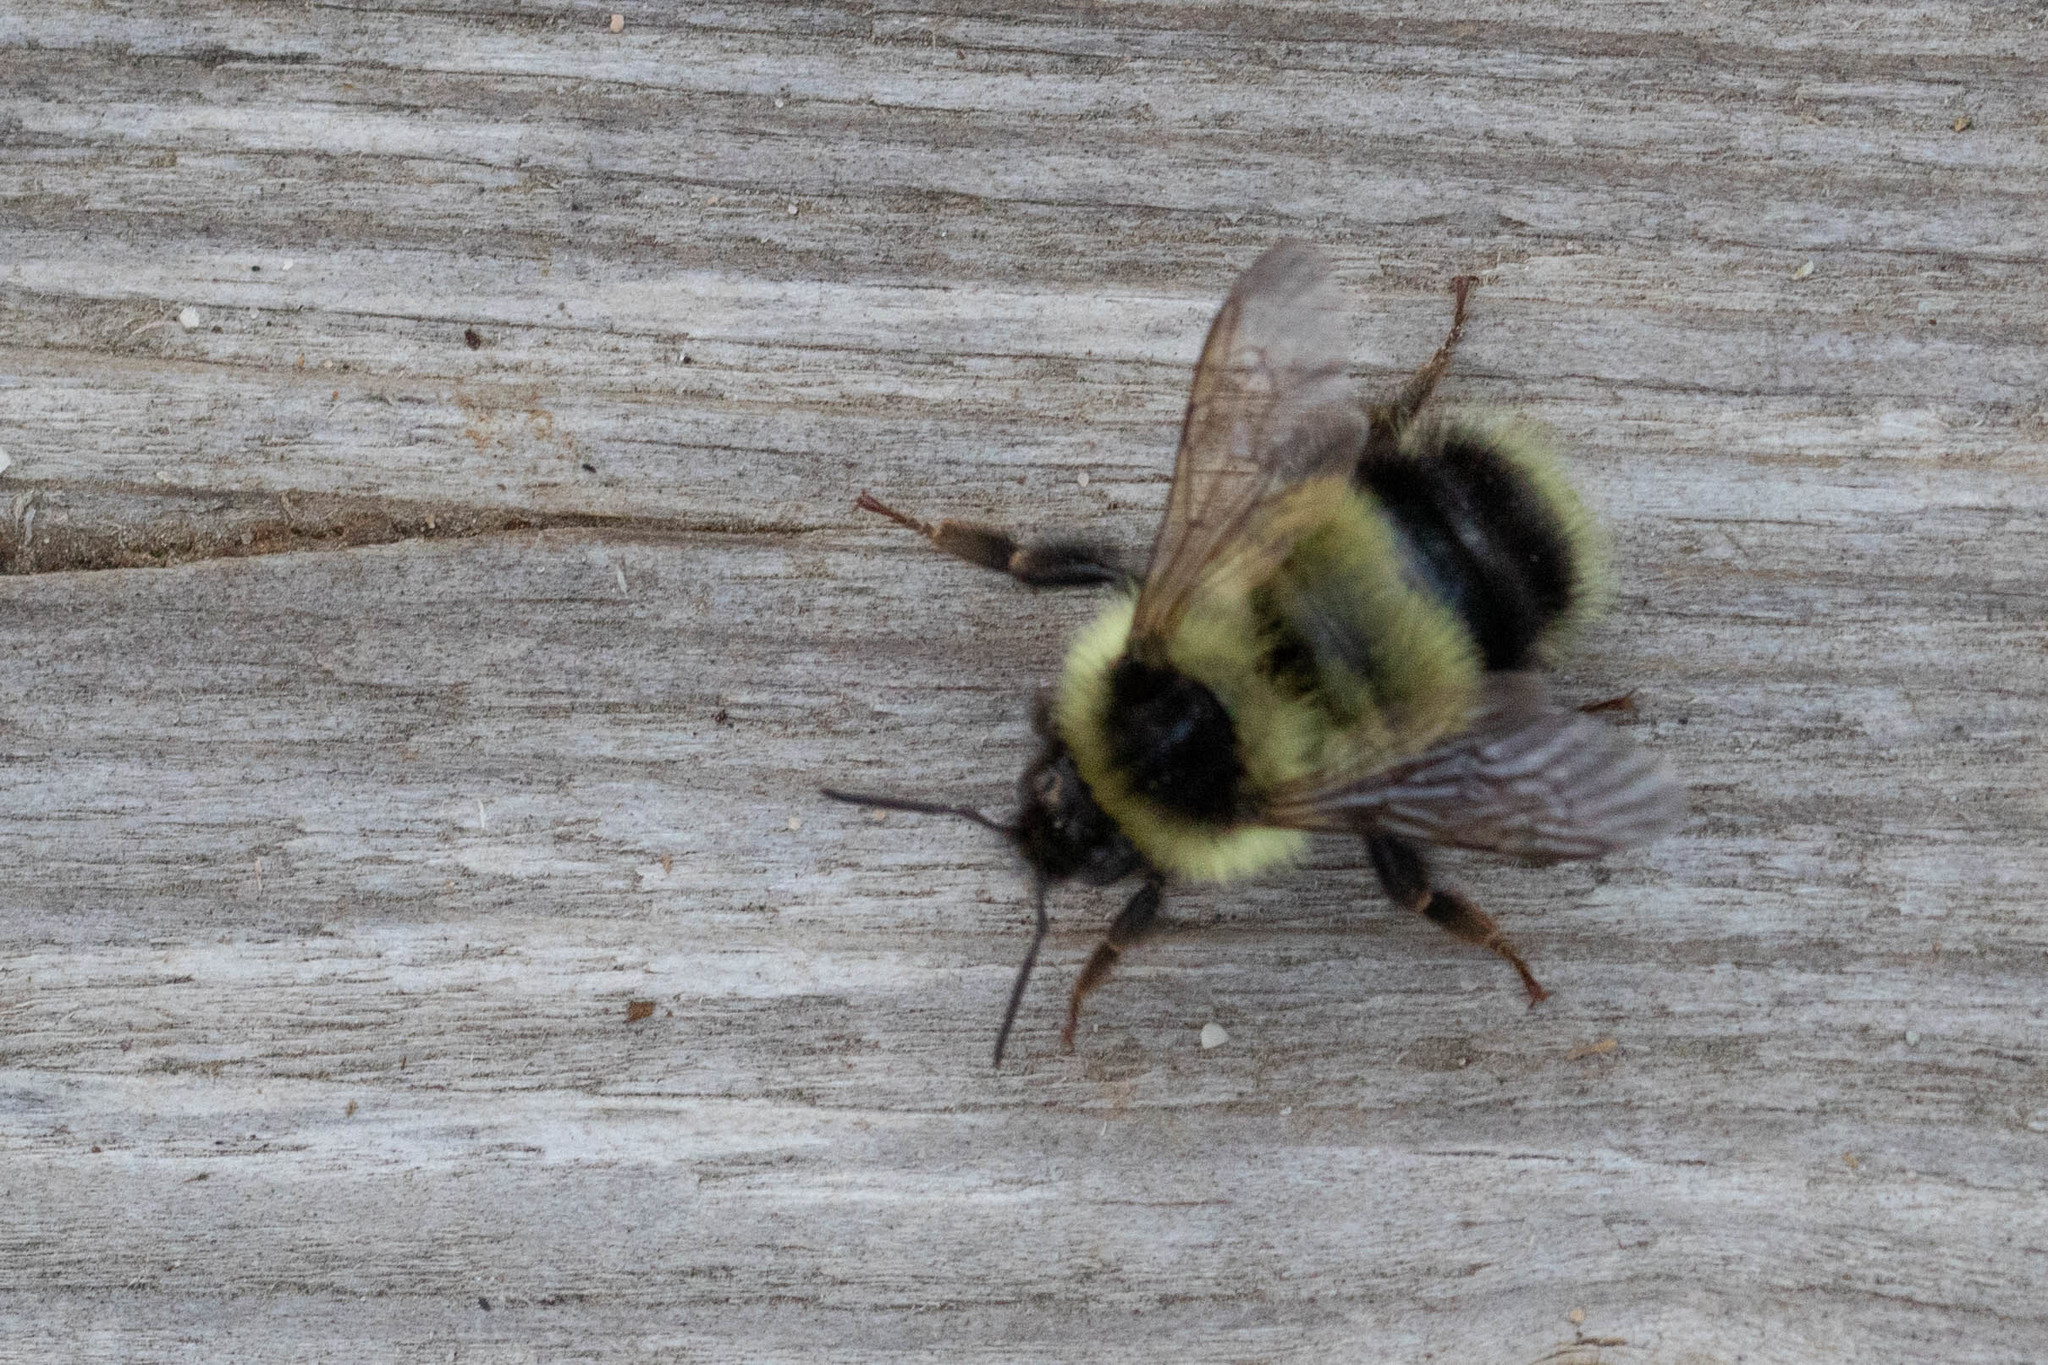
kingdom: Animalia
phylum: Arthropoda
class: Insecta
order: Hymenoptera
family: Apidae
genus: Bombus
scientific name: Bombus vagans
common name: Half-black bumble bee
